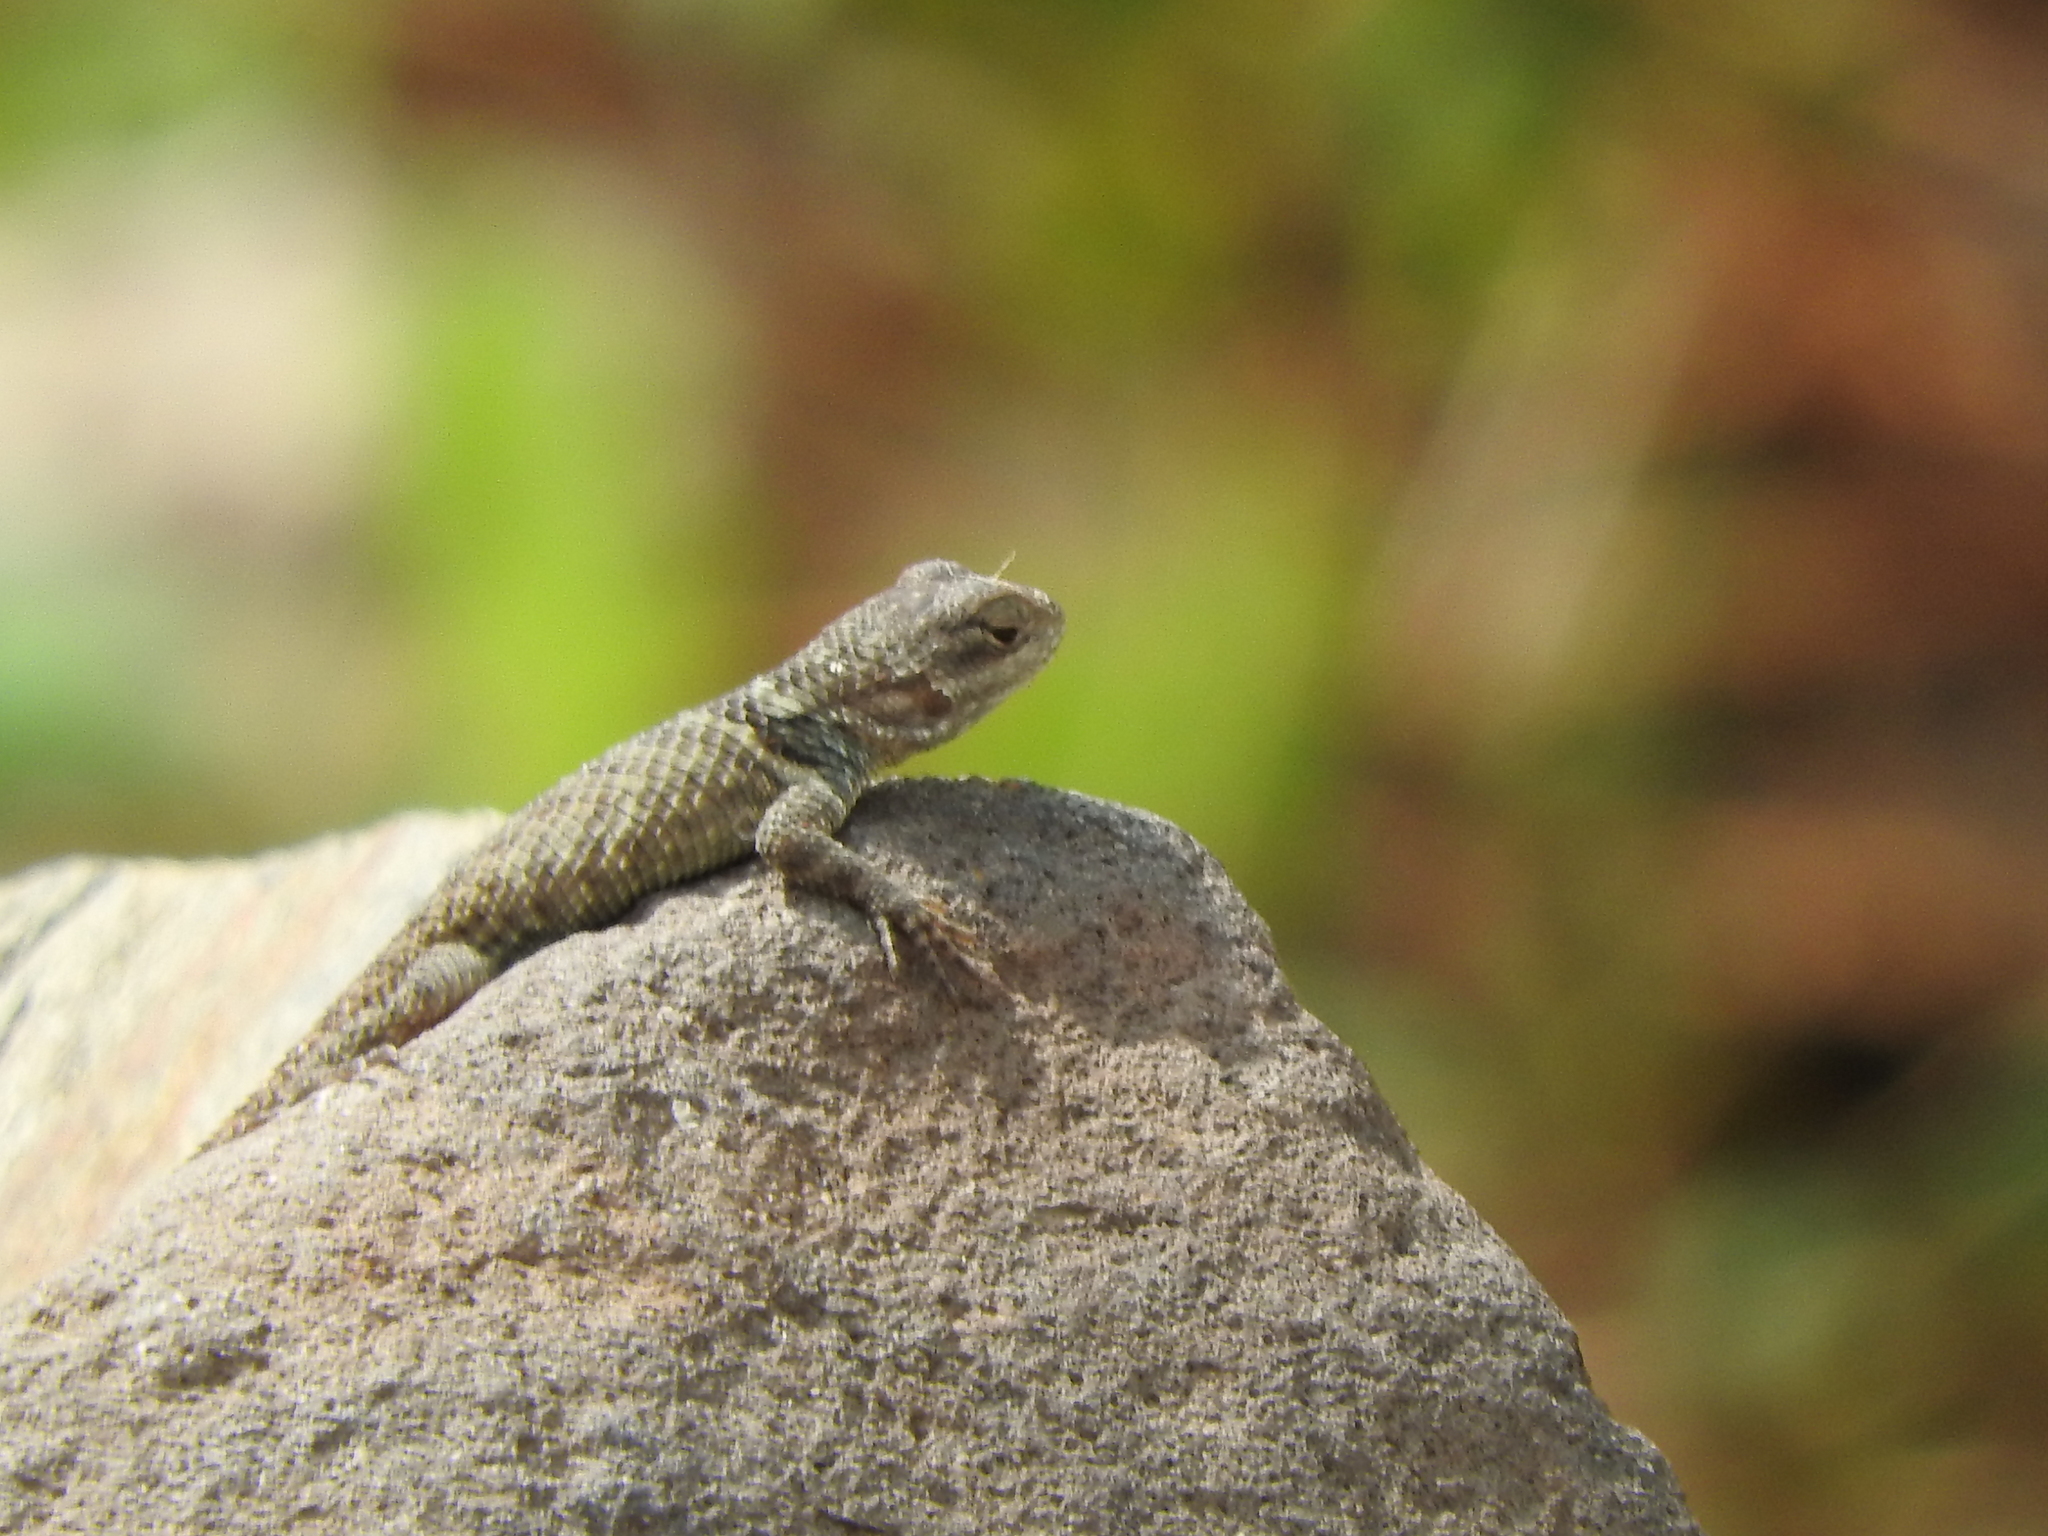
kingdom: Animalia
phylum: Chordata
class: Squamata
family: Phrynosomatidae
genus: Sceloporus
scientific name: Sceloporus torquatus
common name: Central plateau torquate lizard [melanogaster]
